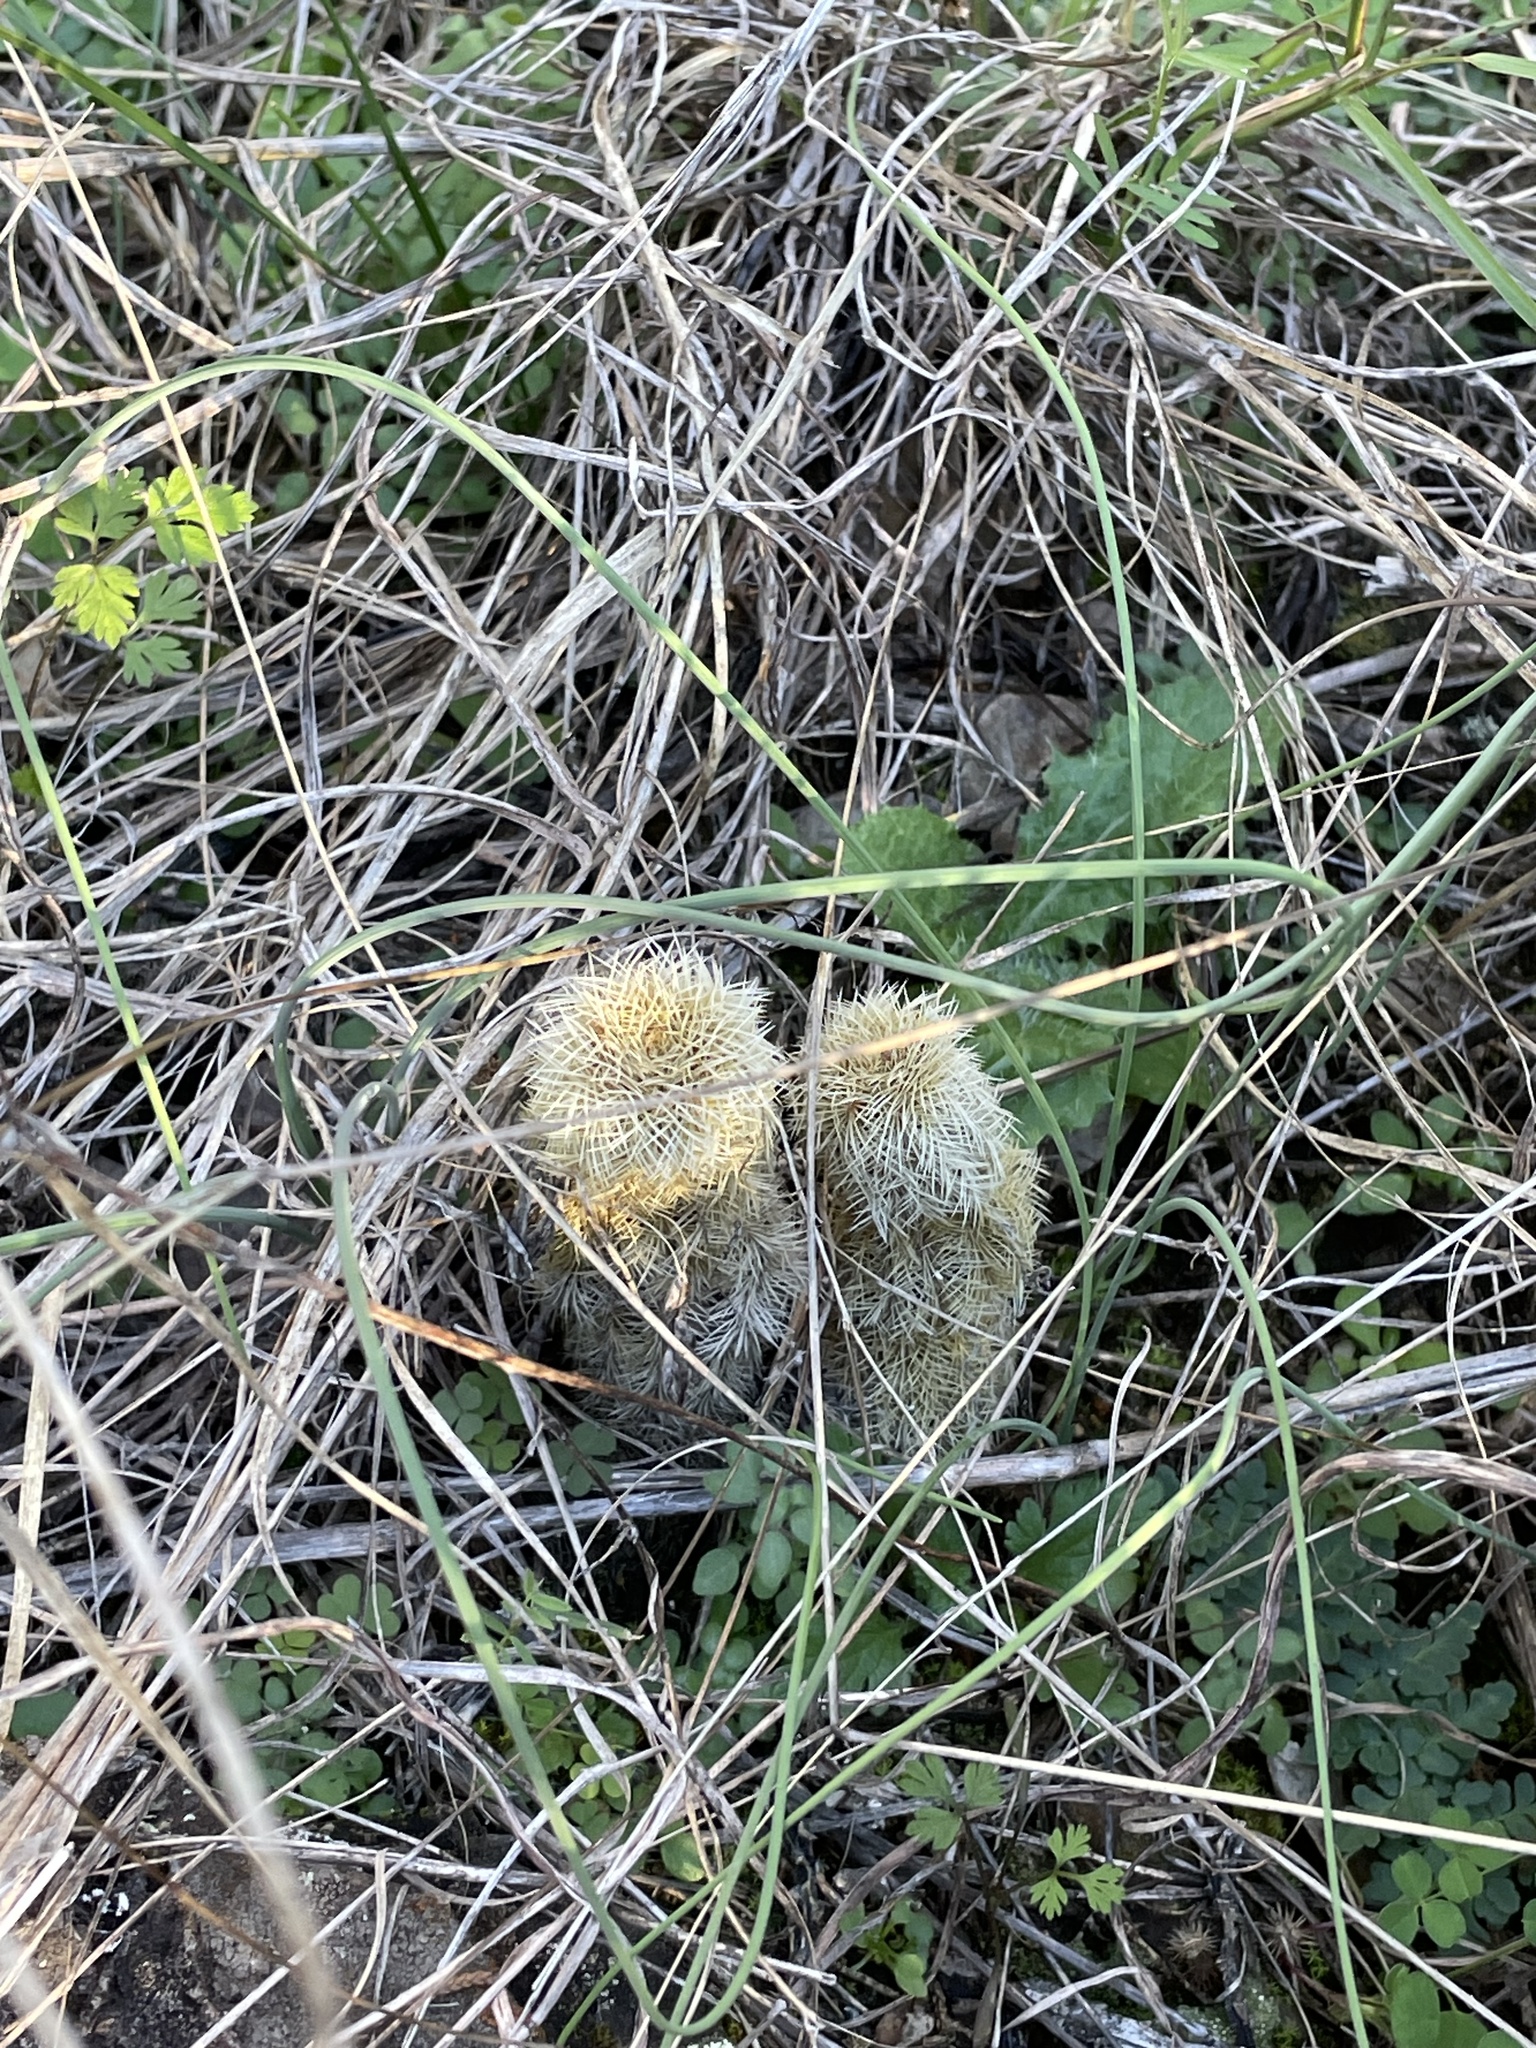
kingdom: Plantae
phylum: Tracheophyta
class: Magnoliopsida
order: Caryophyllales
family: Cactaceae
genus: Echinocereus
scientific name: Echinocereus reichenbachii
